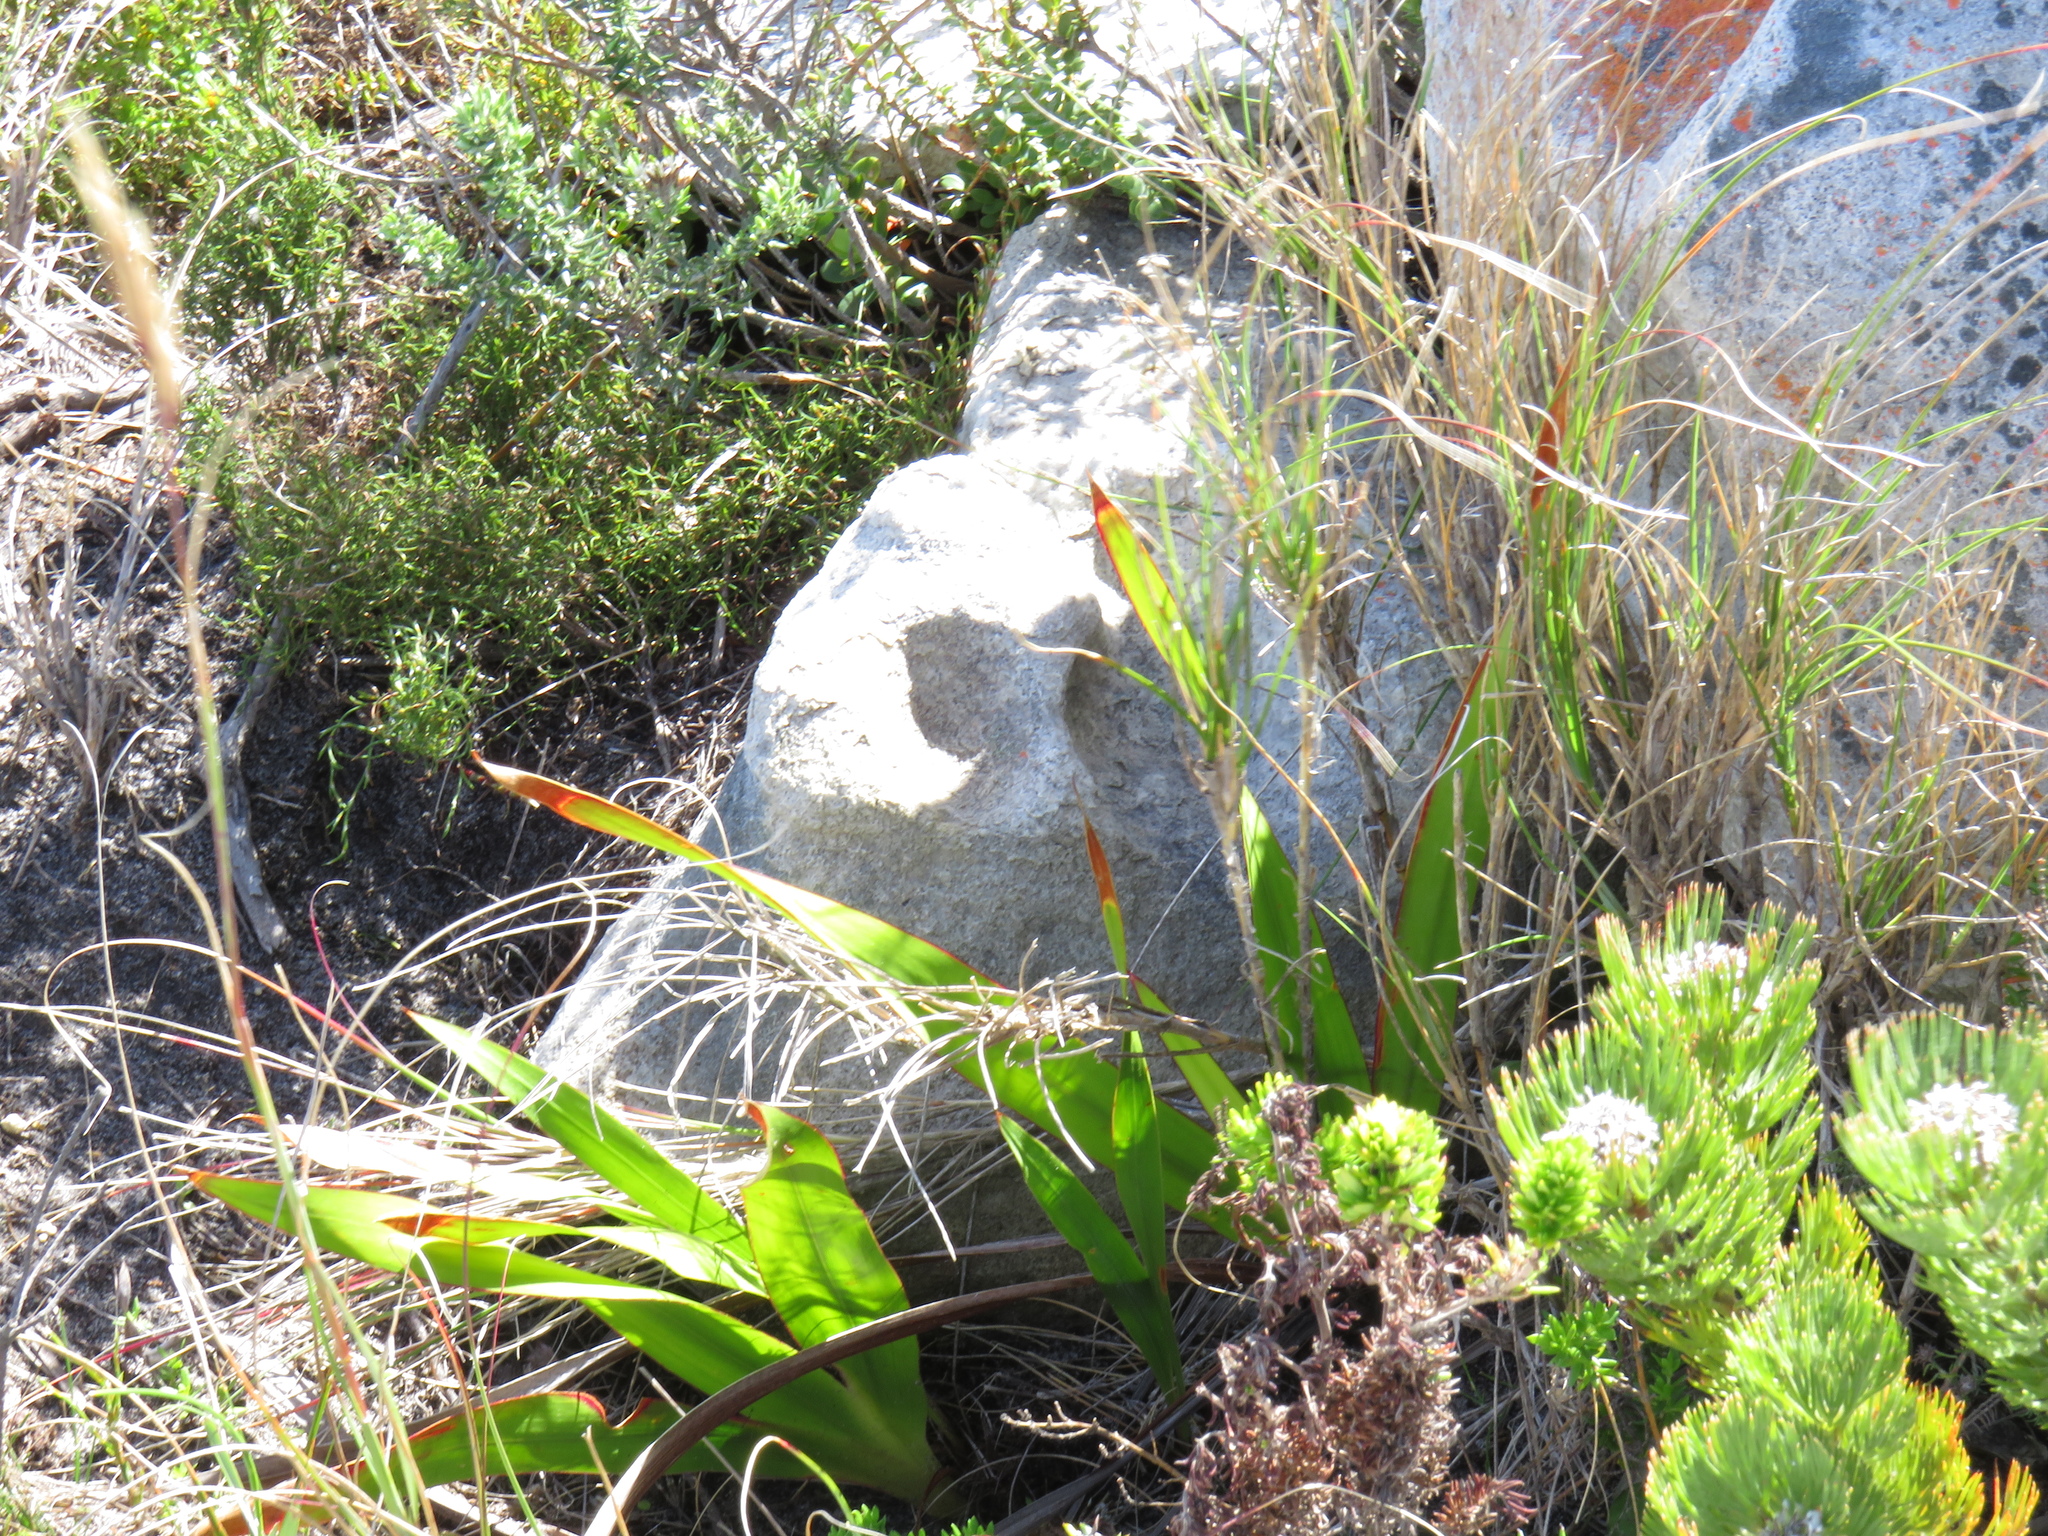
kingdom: Plantae
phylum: Tracheophyta
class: Liliopsida
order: Asparagales
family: Iridaceae
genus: Watsonia
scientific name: Watsonia tabularis
